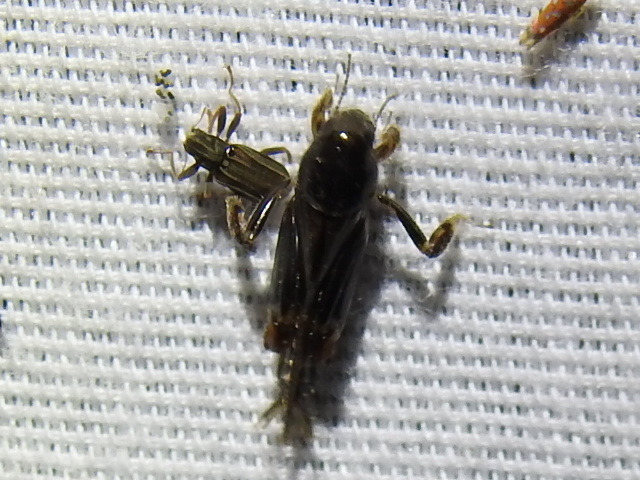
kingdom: Animalia
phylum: Arthropoda
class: Insecta
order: Orthoptera
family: Tridactylidae
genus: Neotridactylus
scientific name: Neotridactylus apicialis
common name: Larger pygmy locust
